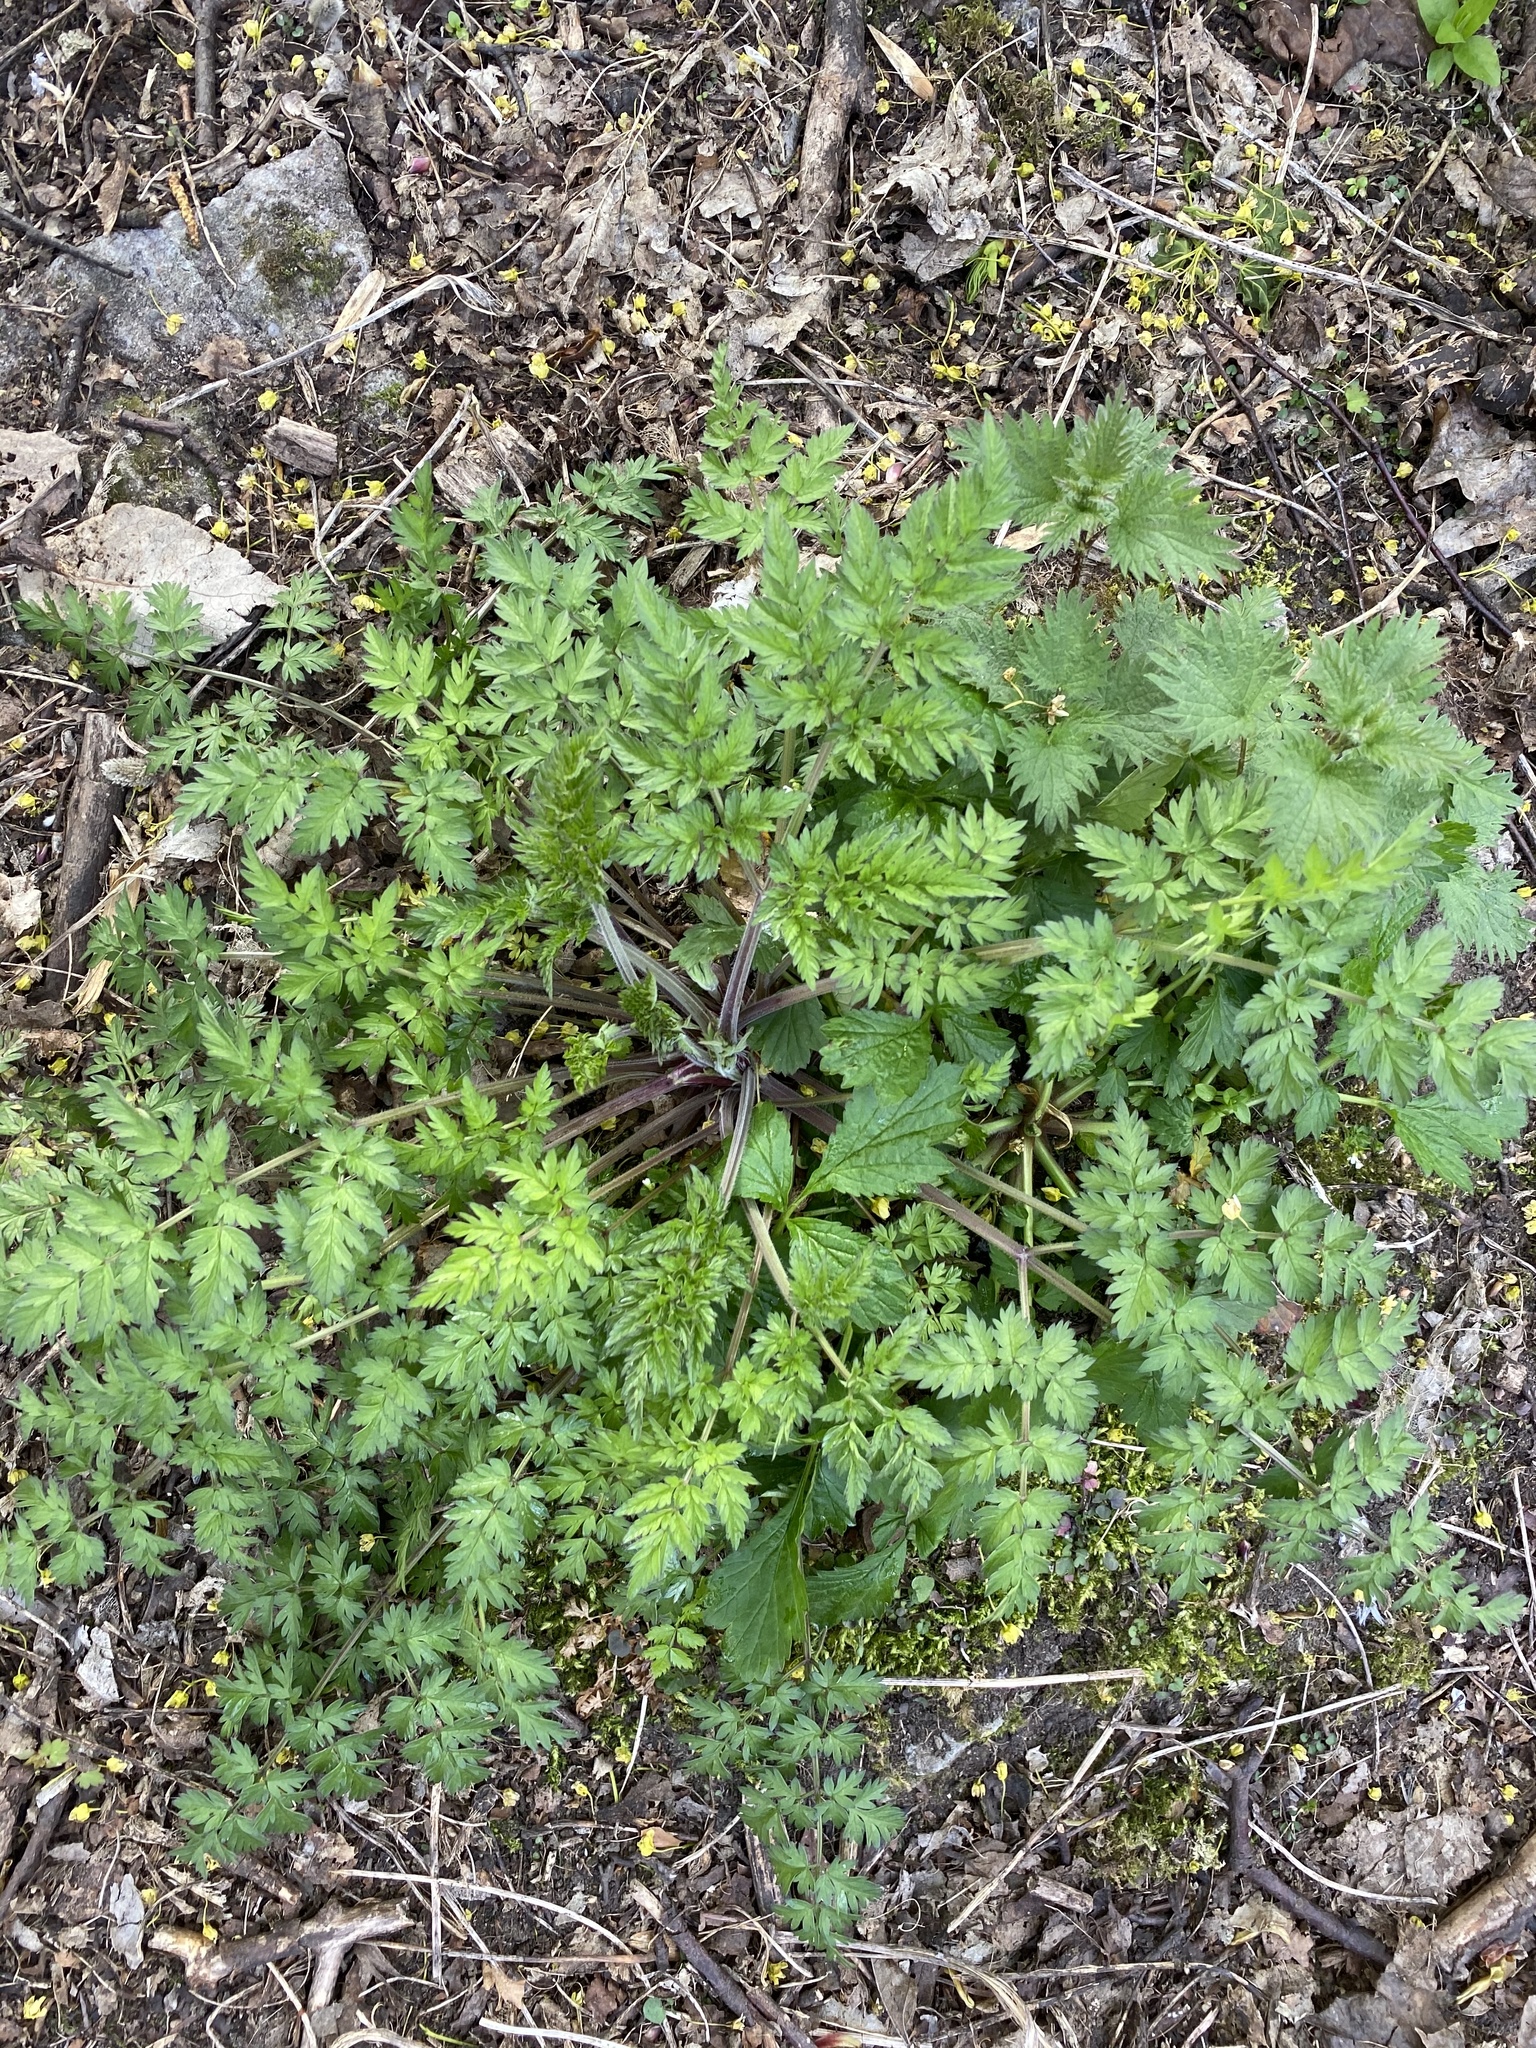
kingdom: Plantae
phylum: Tracheophyta
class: Magnoliopsida
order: Apiales
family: Apiaceae
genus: Anthriscus
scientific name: Anthriscus sylvestris
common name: Cow parsley
